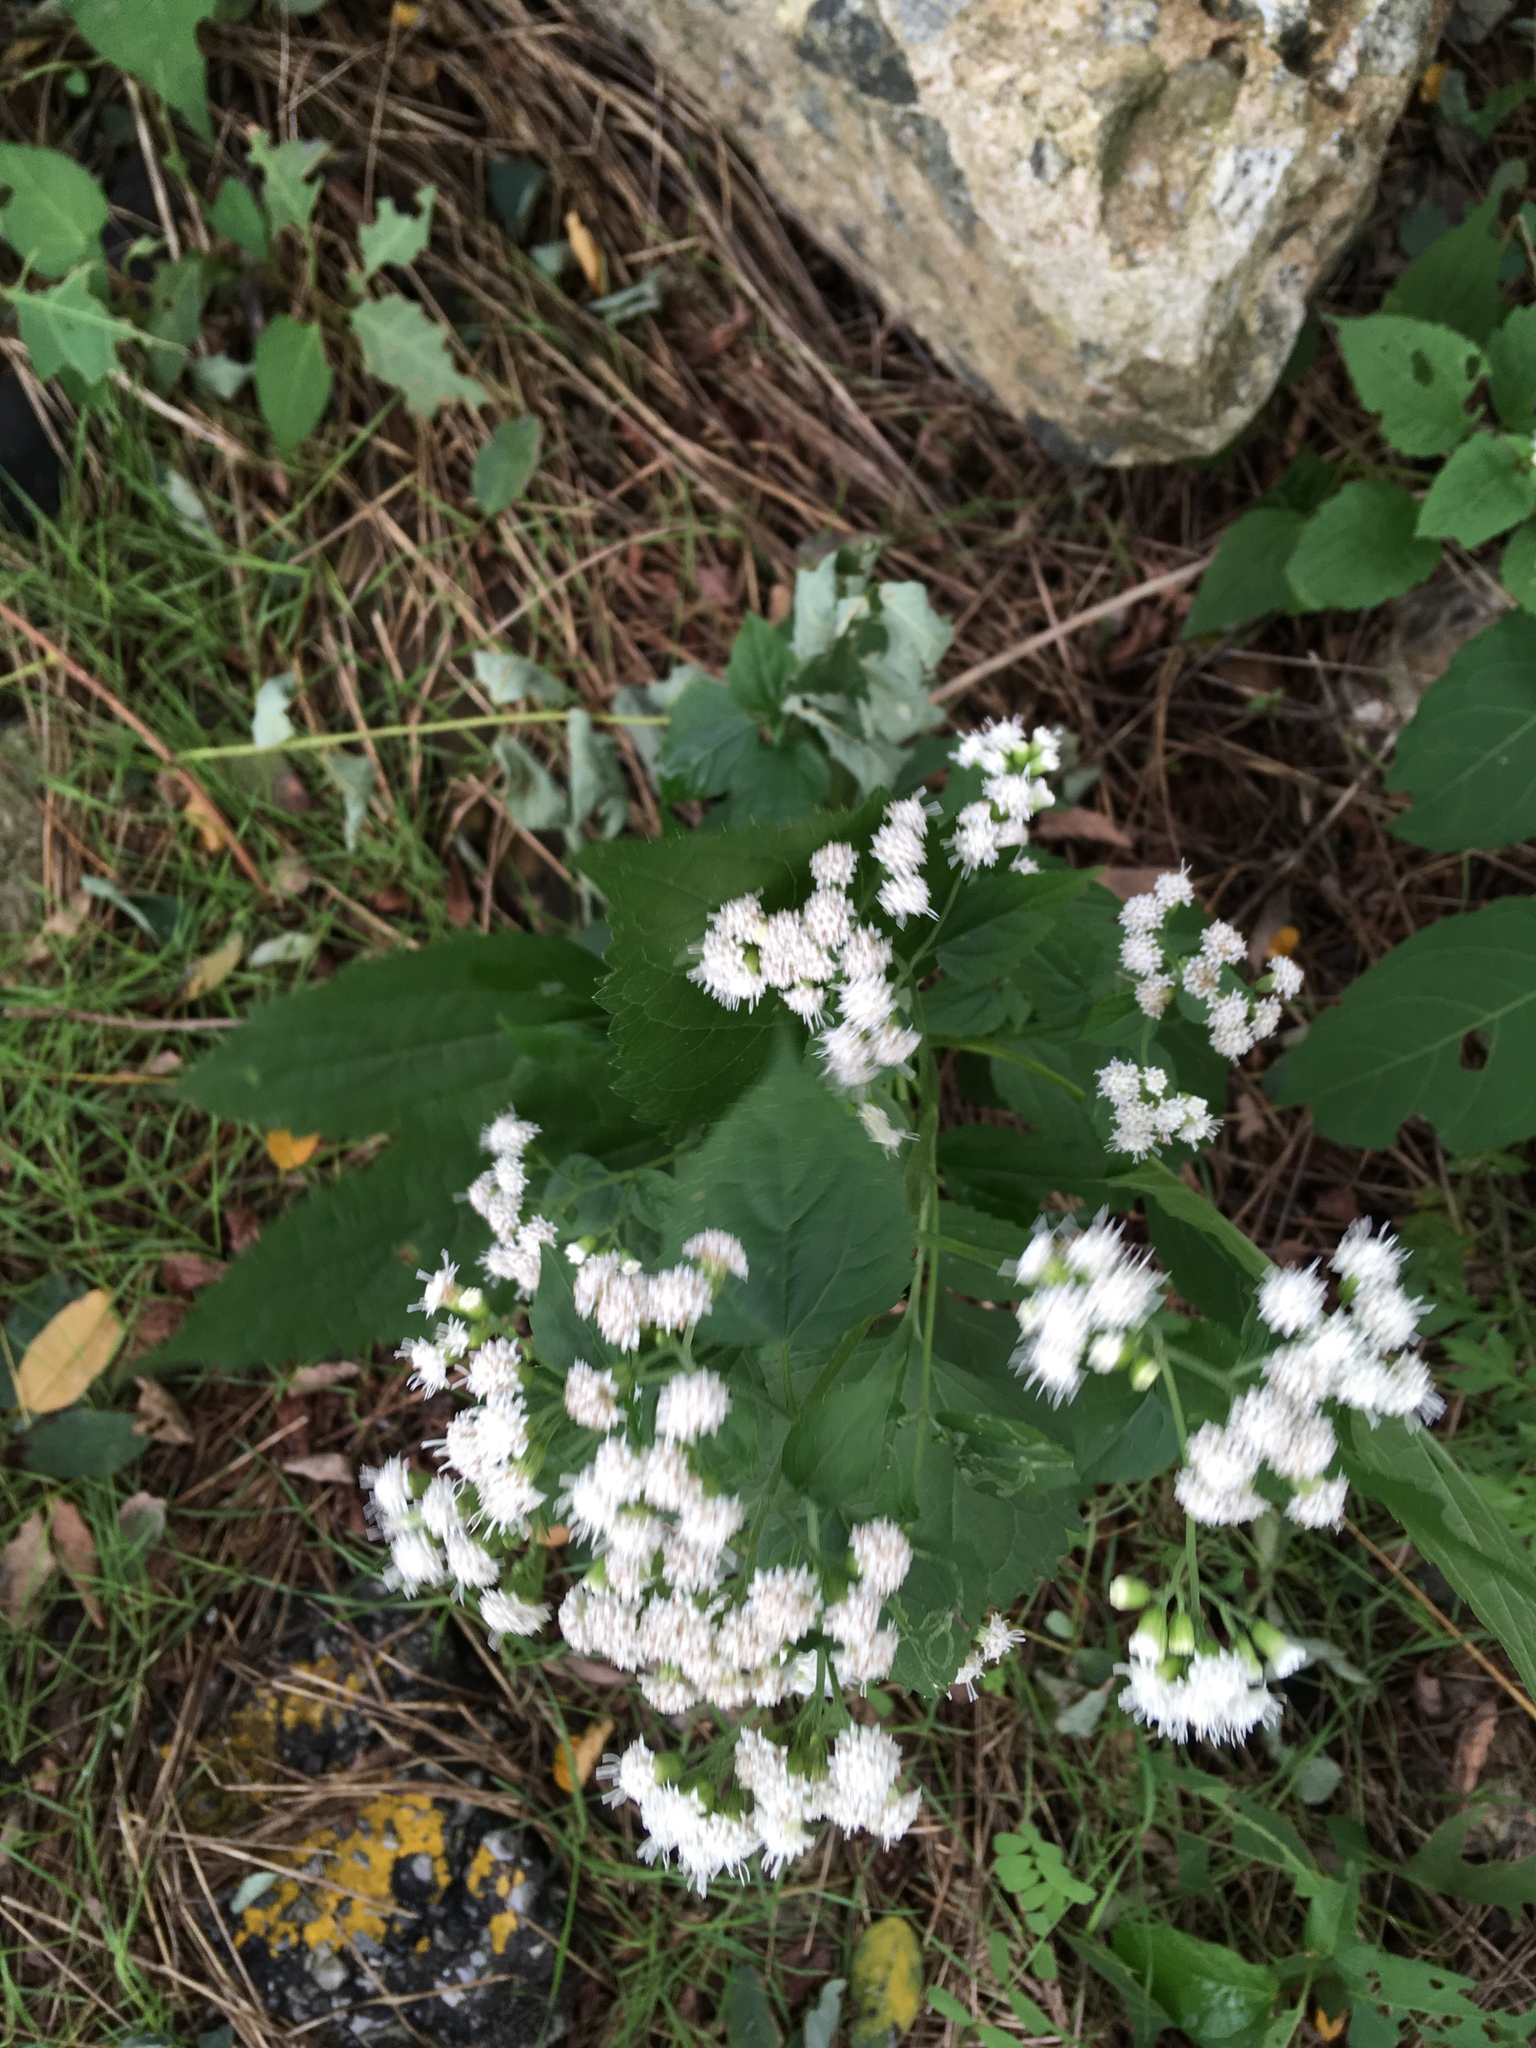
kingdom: Plantae
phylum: Tracheophyta
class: Magnoliopsida
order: Asterales
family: Asteraceae
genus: Ageratina
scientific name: Ageratina altissima
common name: White snakeroot
